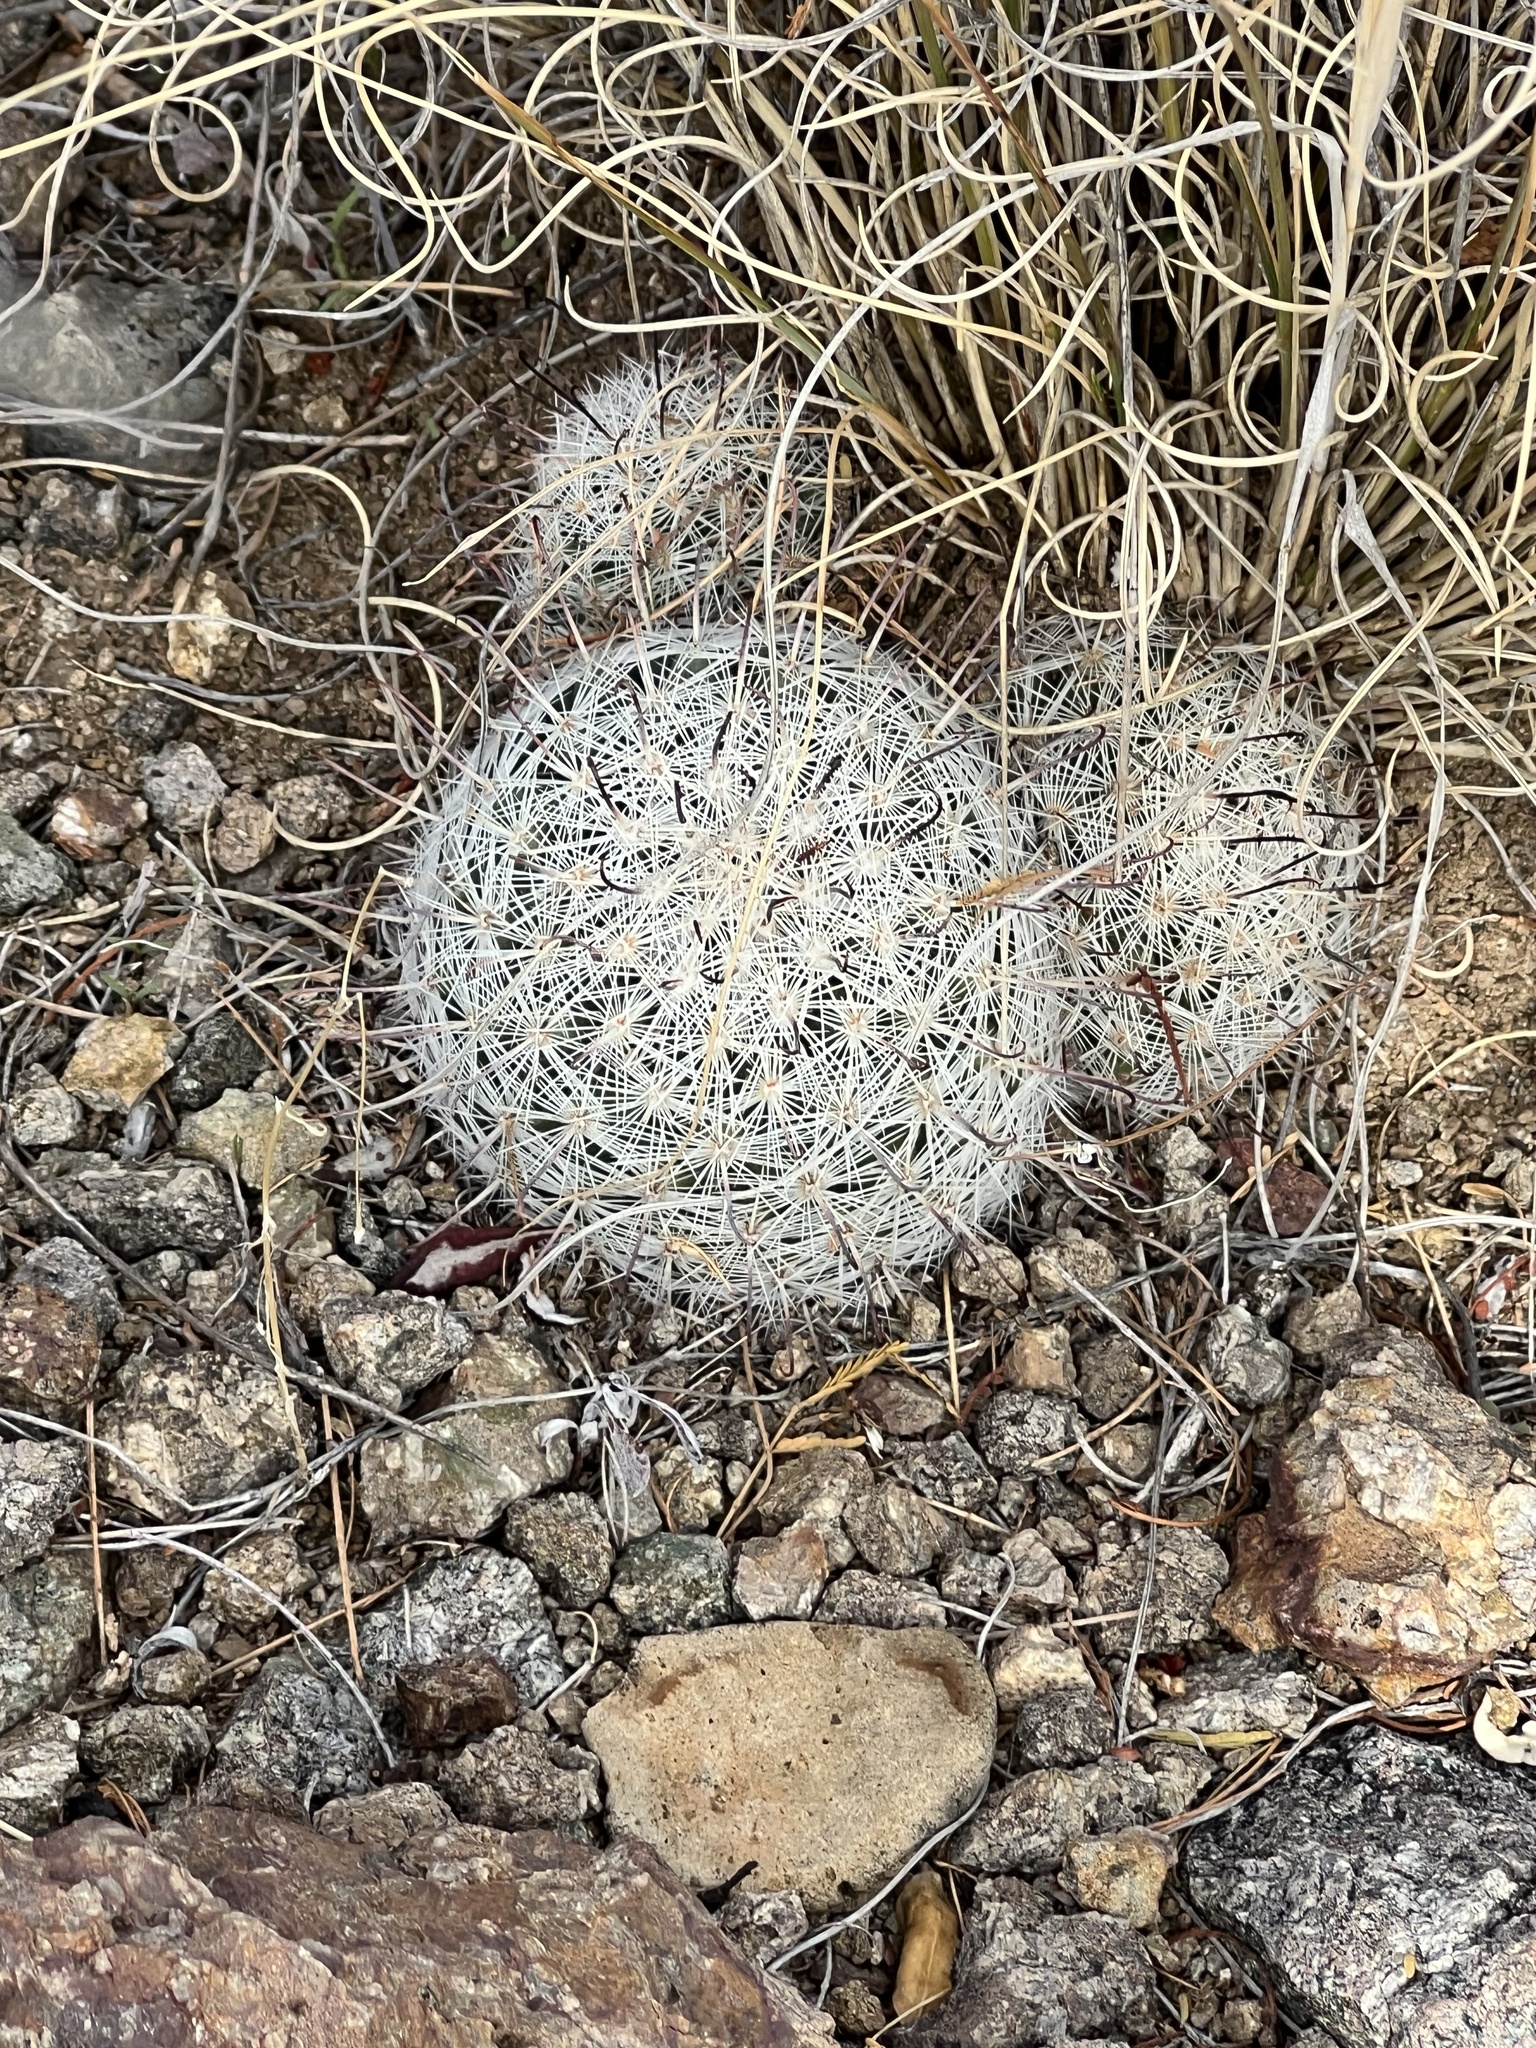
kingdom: Plantae
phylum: Tracheophyta
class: Magnoliopsida
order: Caryophyllales
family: Cactaceae
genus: Cochemiea
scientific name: Cochemiea grahamii
